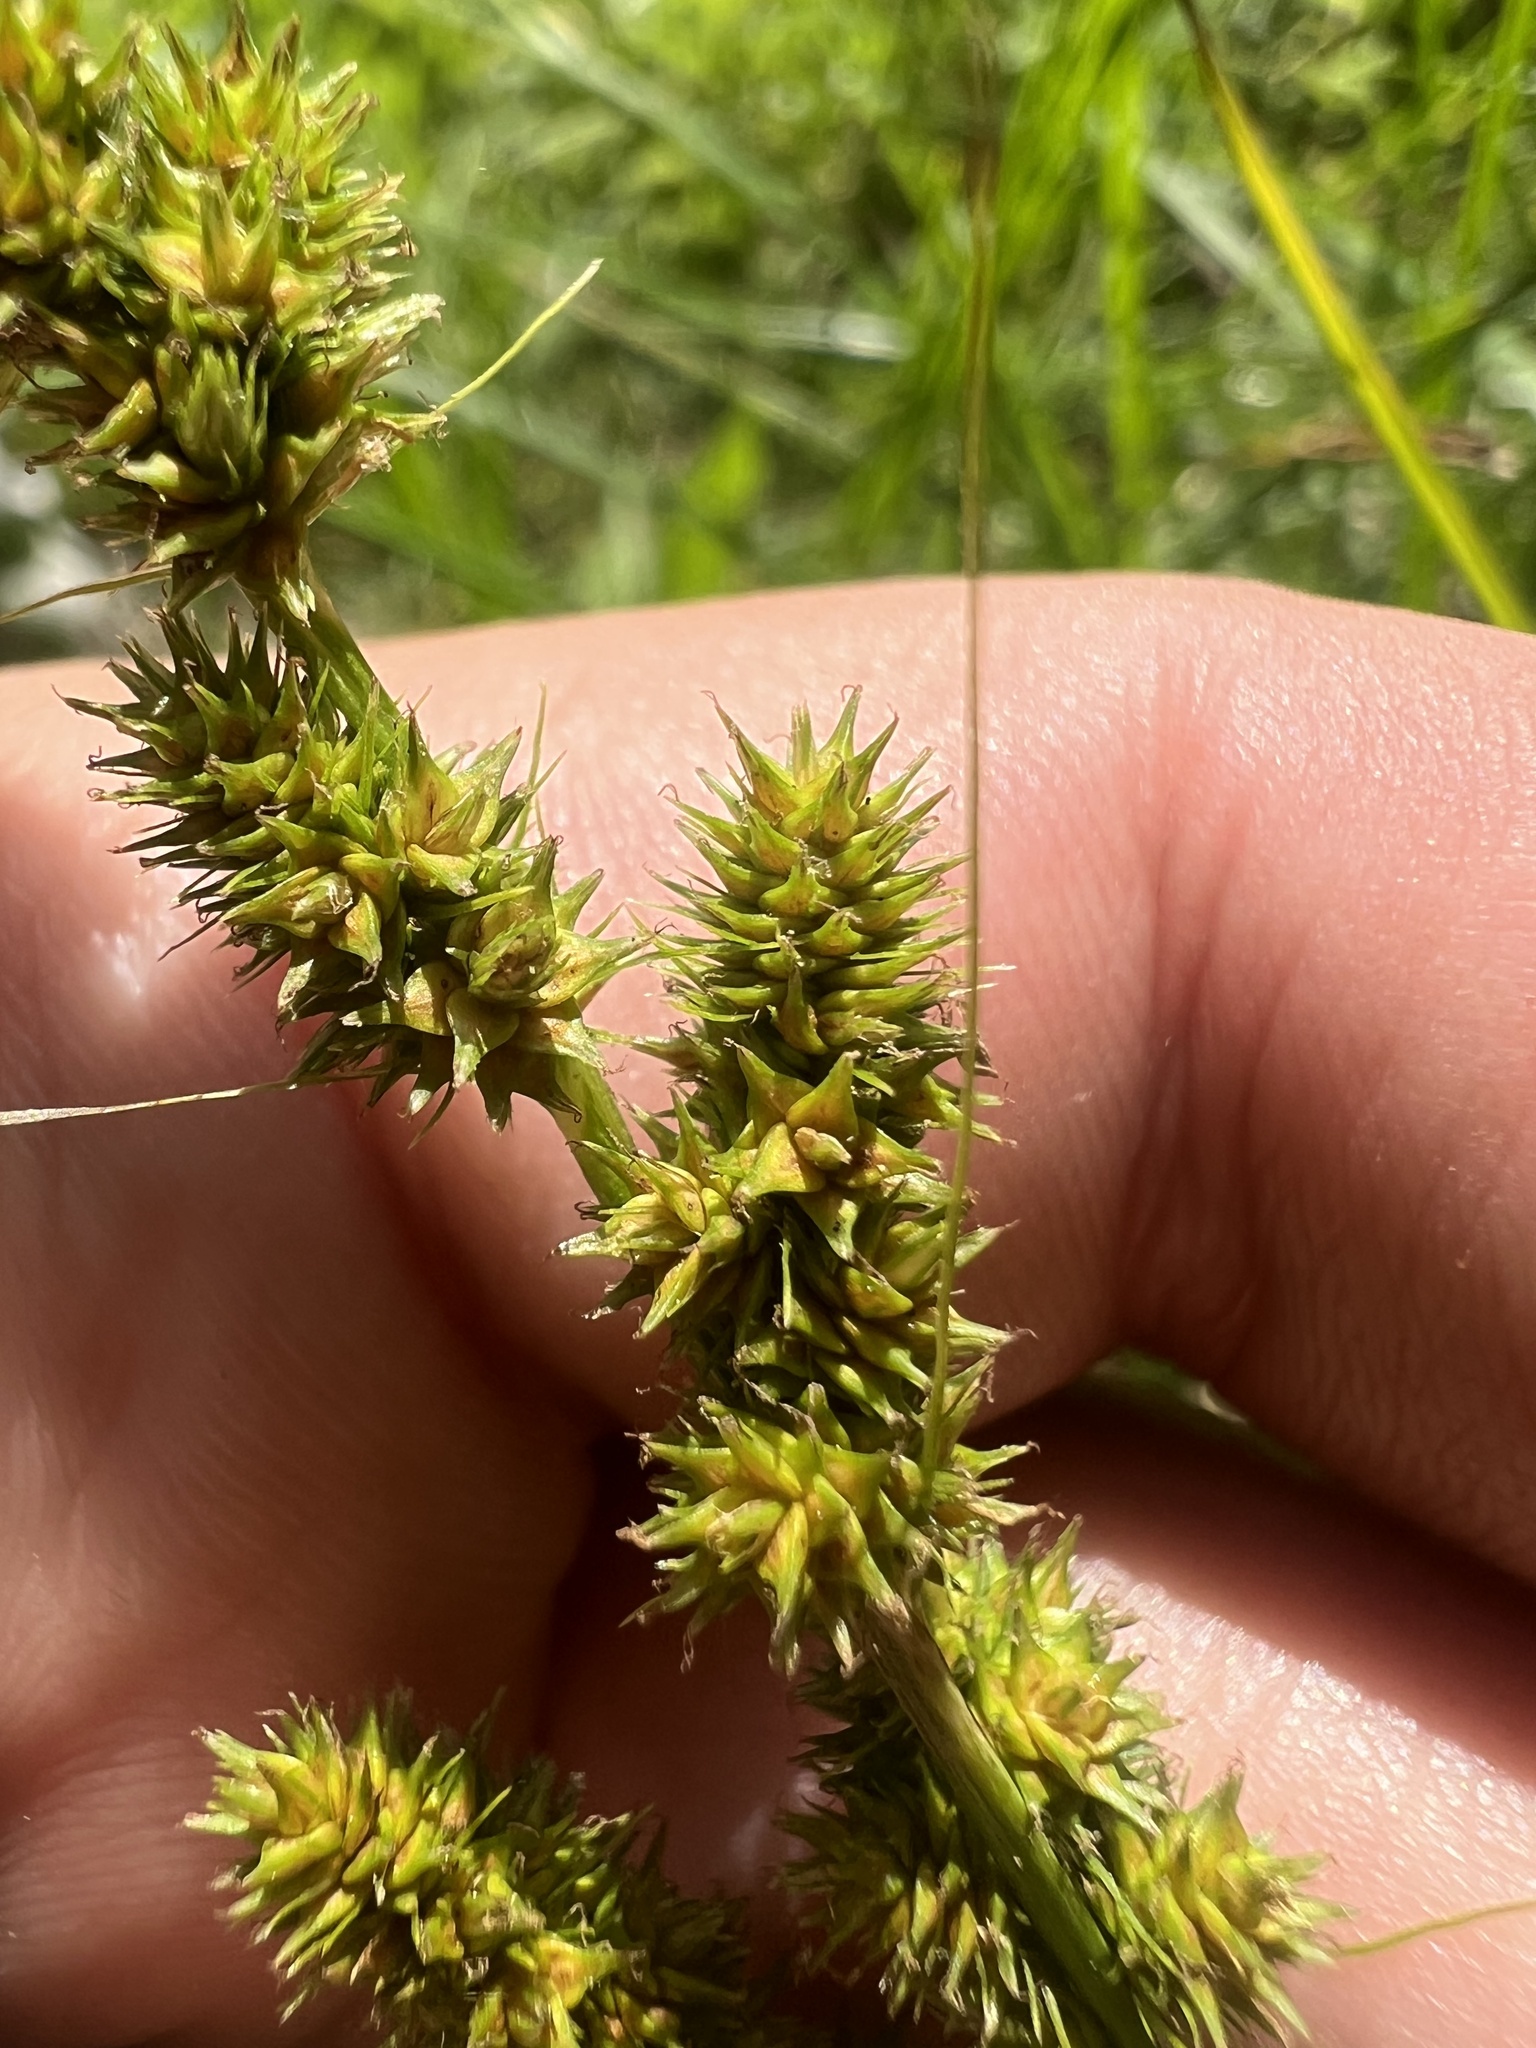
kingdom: Plantae
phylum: Tracheophyta
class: Liliopsida
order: Poales
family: Cyperaceae
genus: Carex
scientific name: Carex vulpinoidea
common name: American fox-sedge
